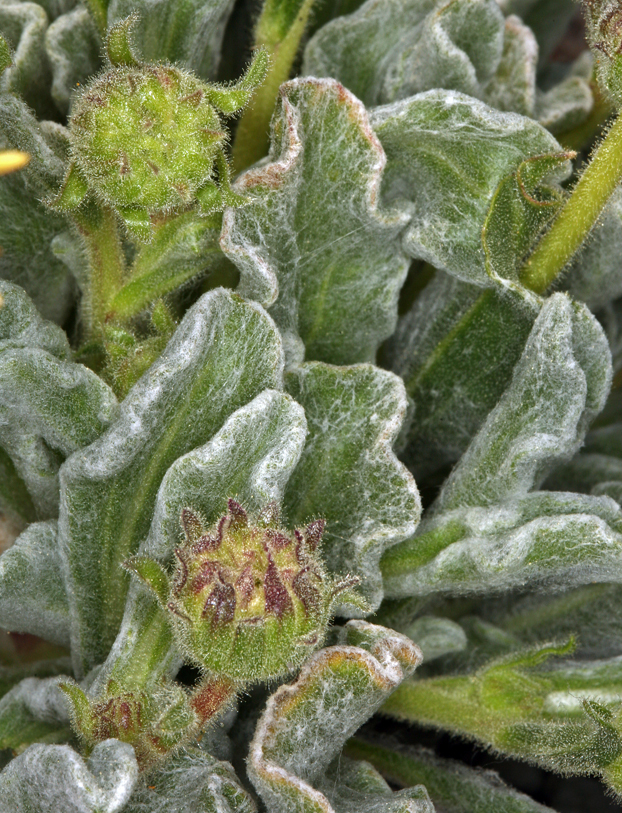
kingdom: Plantae
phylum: Tracheophyta
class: Magnoliopsida
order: Asterales
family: Asteraceae
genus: Hulsea
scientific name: Hulsea vestita
